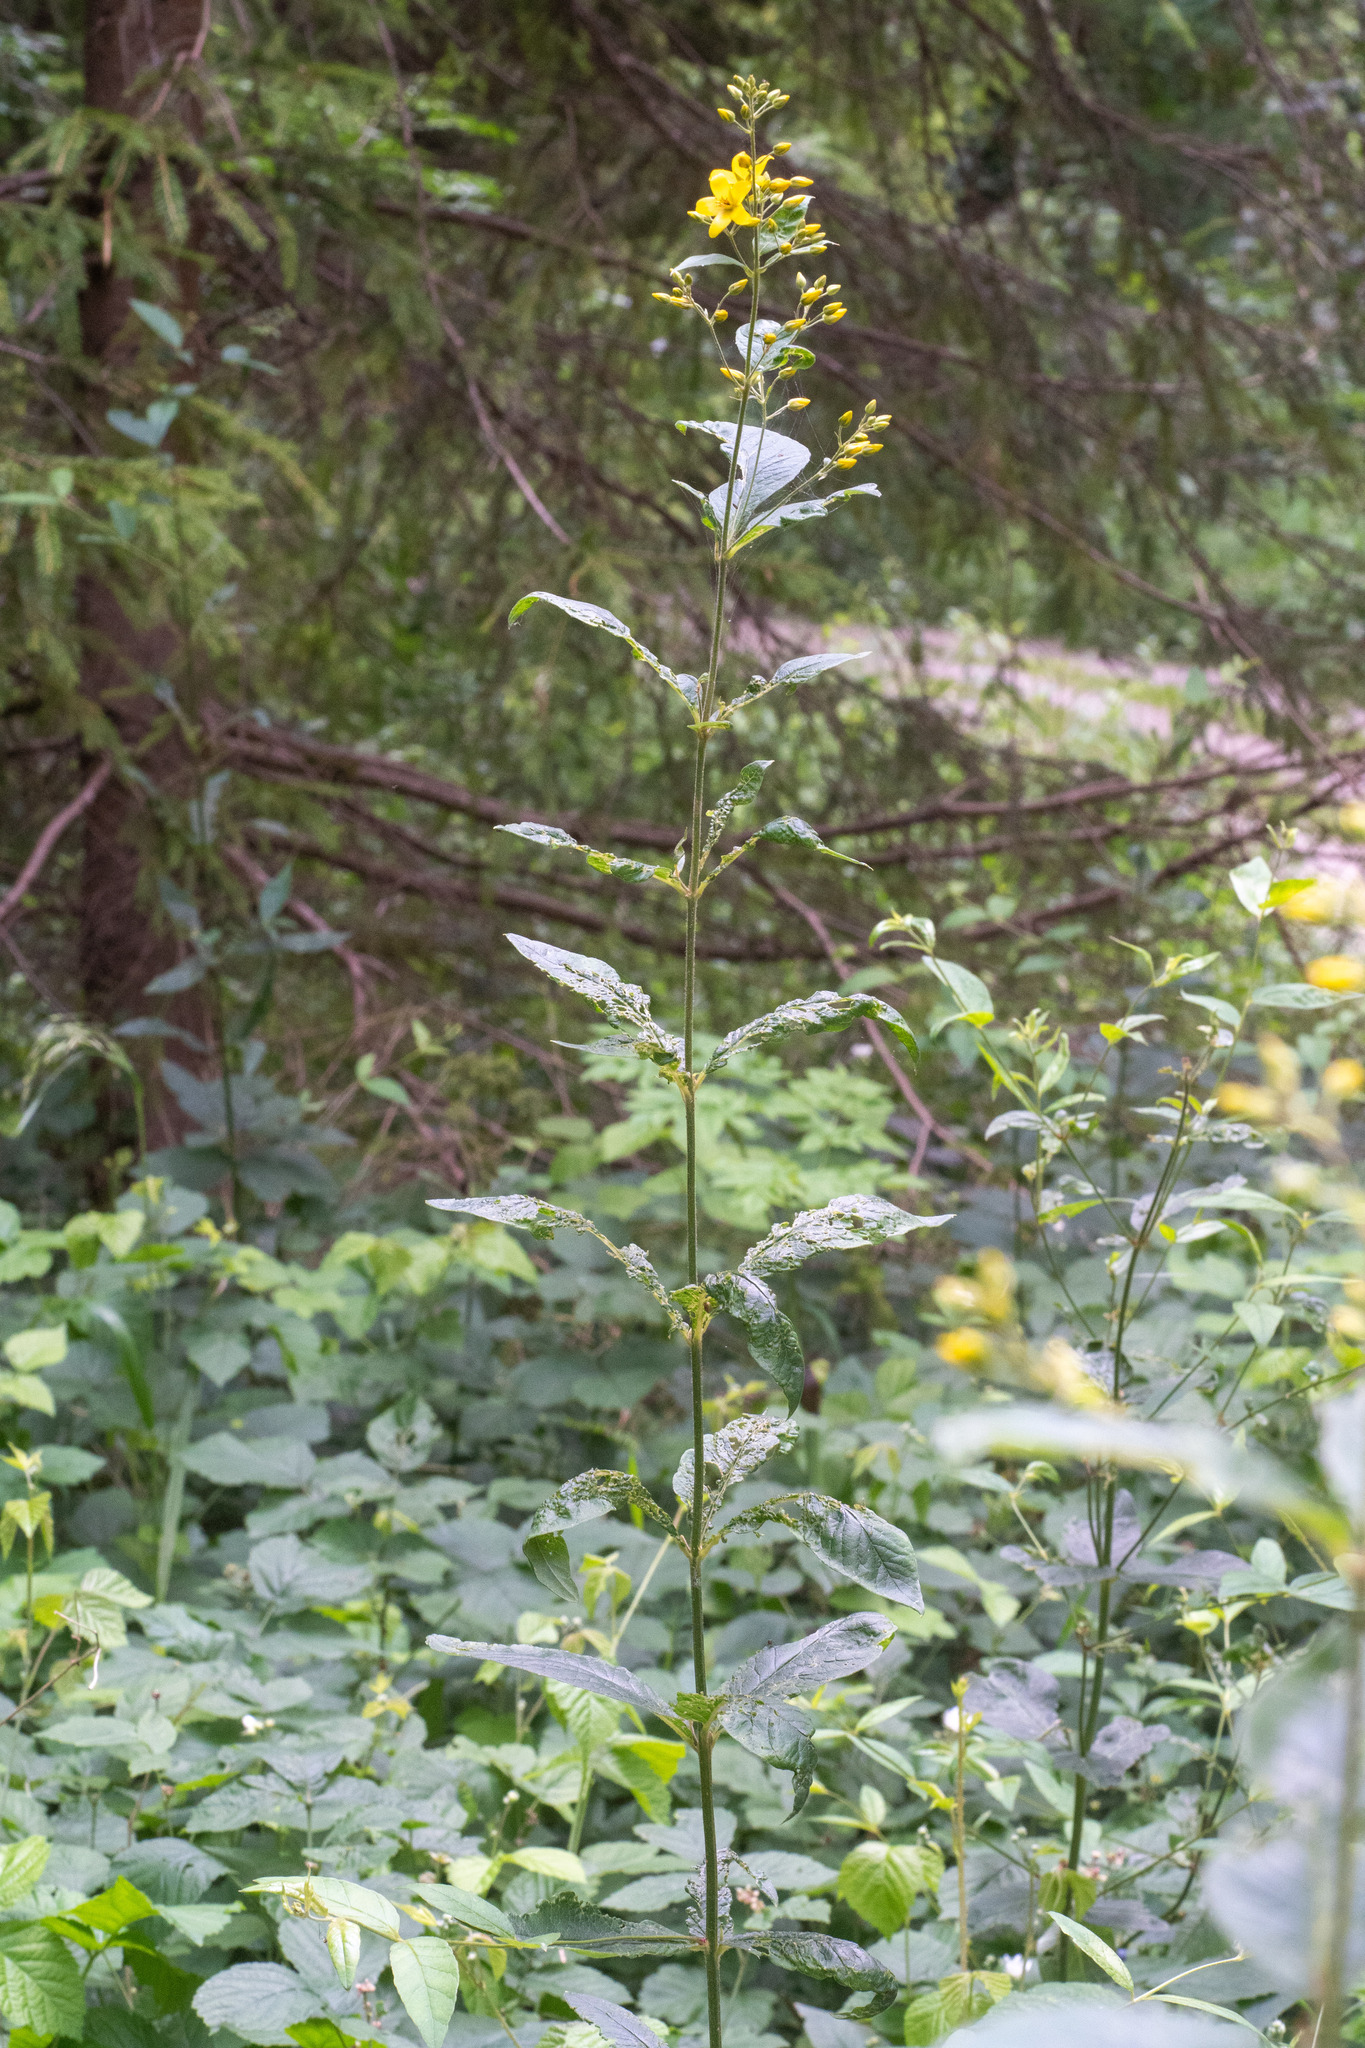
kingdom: Plantae
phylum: Tracheophyta
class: Magnoliopsida
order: Ericales
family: Primulaceae
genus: Lysimachia
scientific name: Lysimachia vulgaris
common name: Yellow loosestrife
